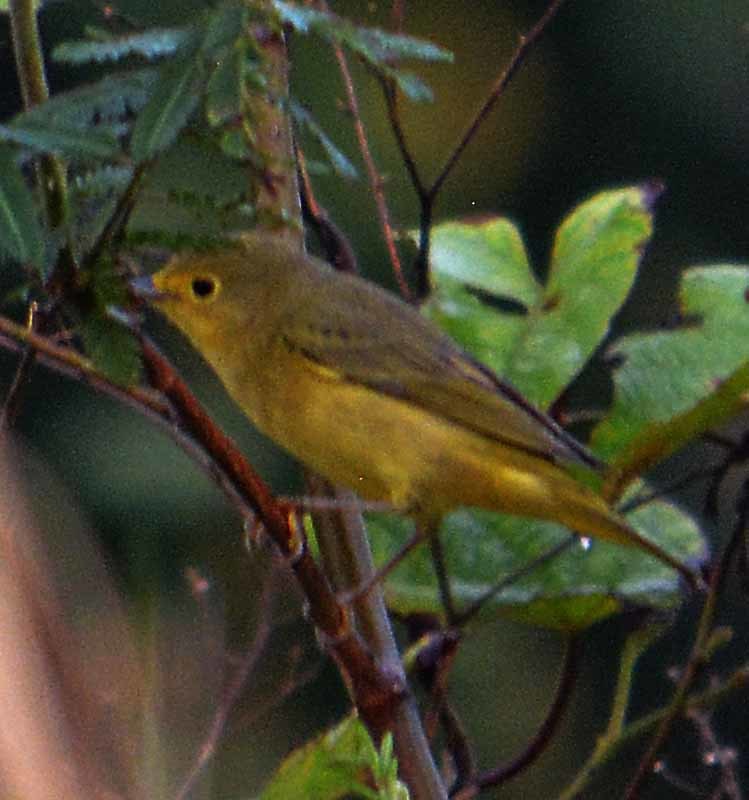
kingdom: Animalia
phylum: Chordata
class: Aves
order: Passeriformes
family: Parulidae
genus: Setophaga
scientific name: Setophaga petechia
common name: Yellow warbler
